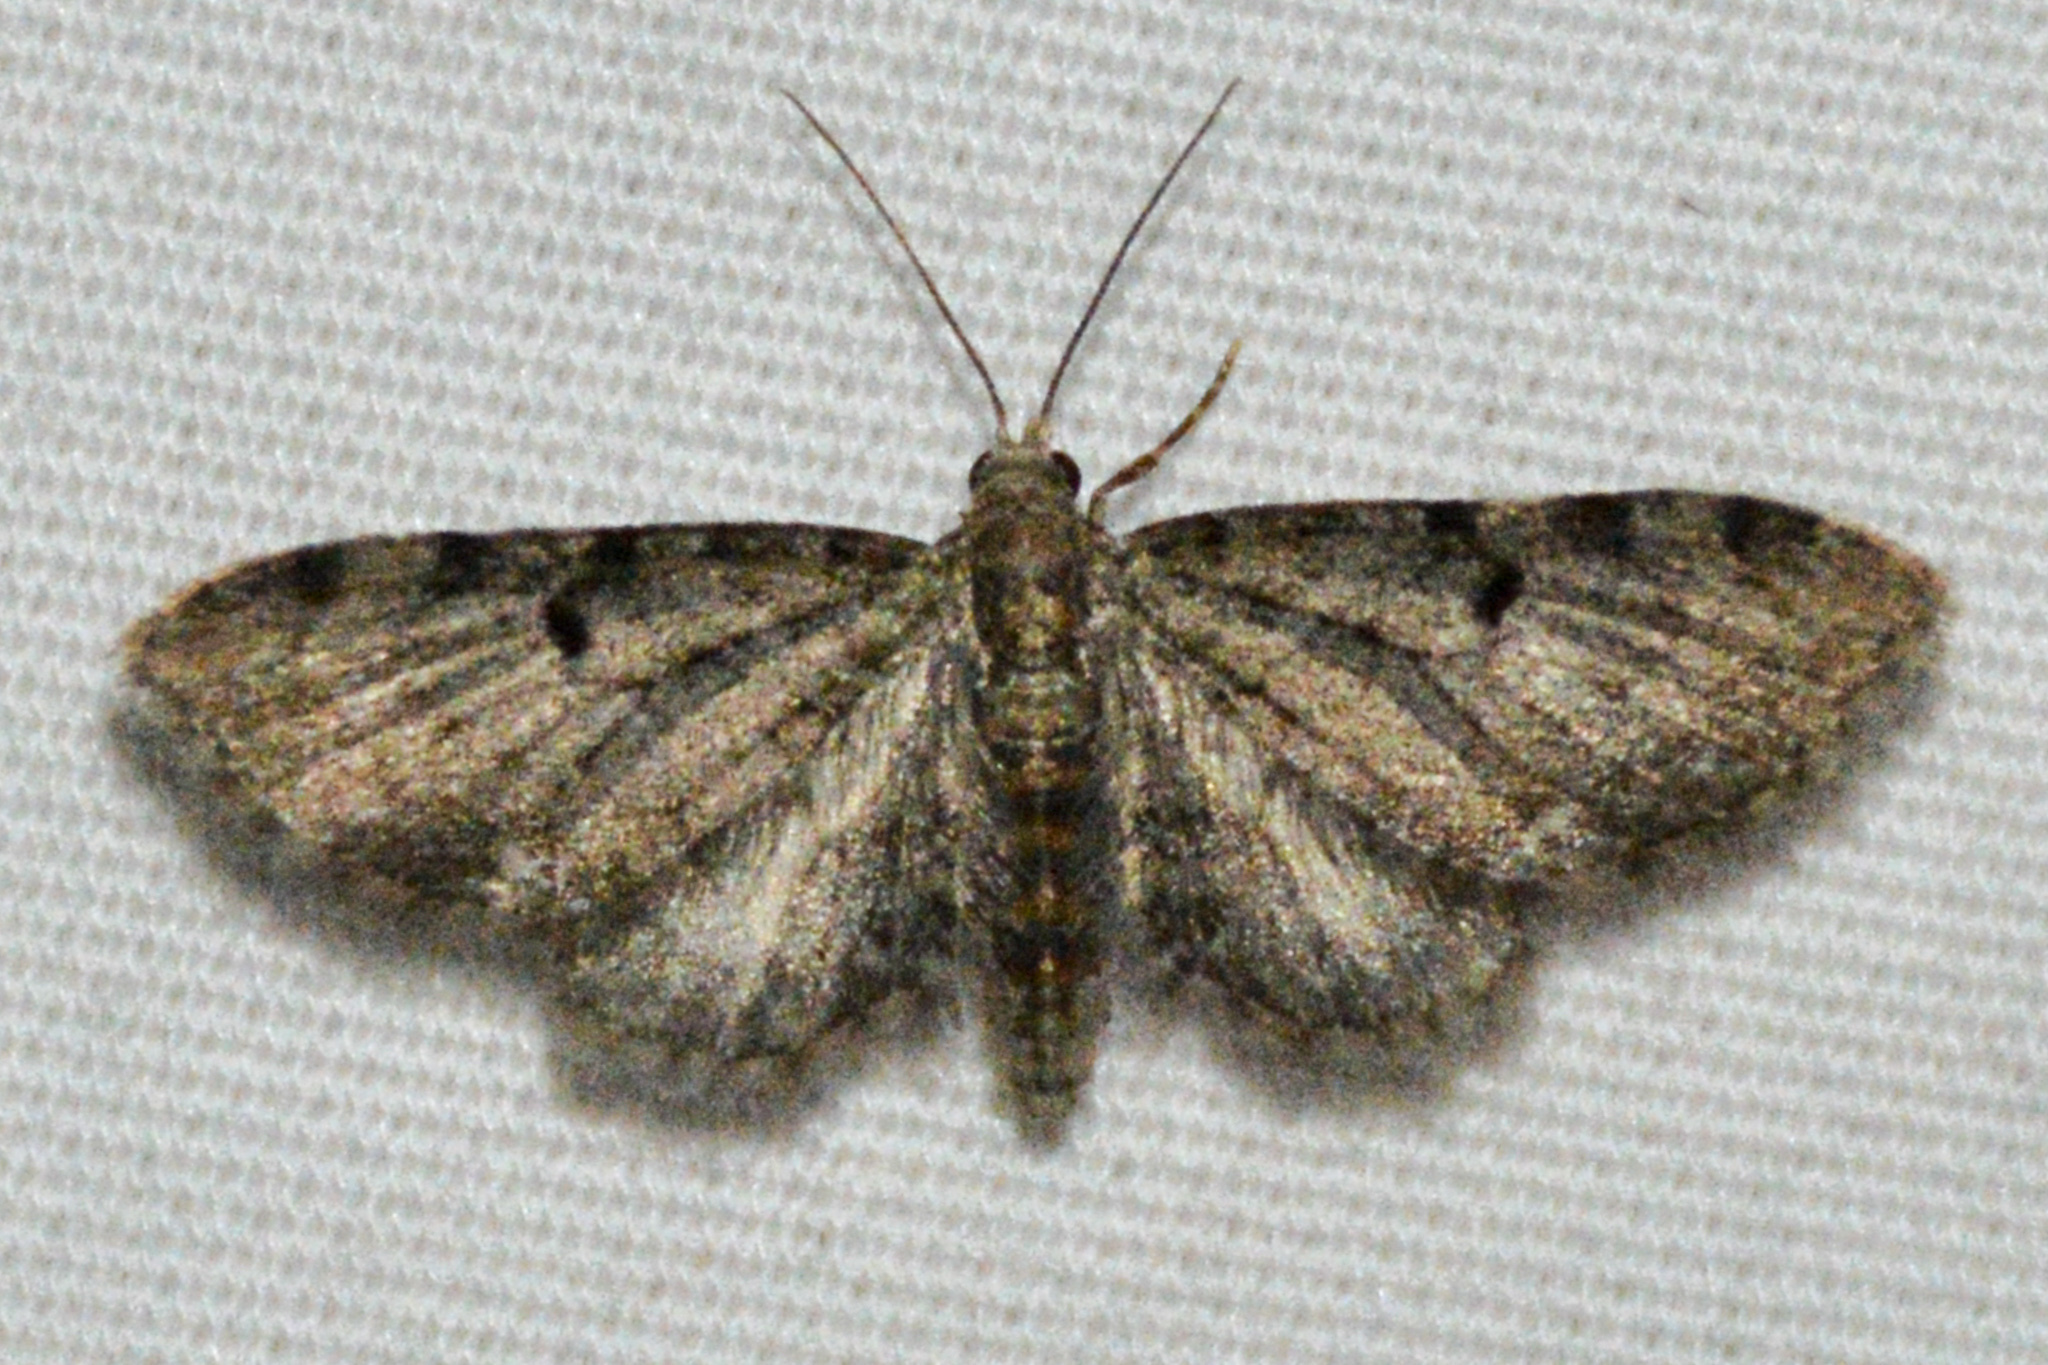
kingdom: Animalia
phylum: Arthropoda
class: Insecta
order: Lepidoptera
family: Geometridae
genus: Eupithecia
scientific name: Eupithecia miserulata
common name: Common eupithecia
